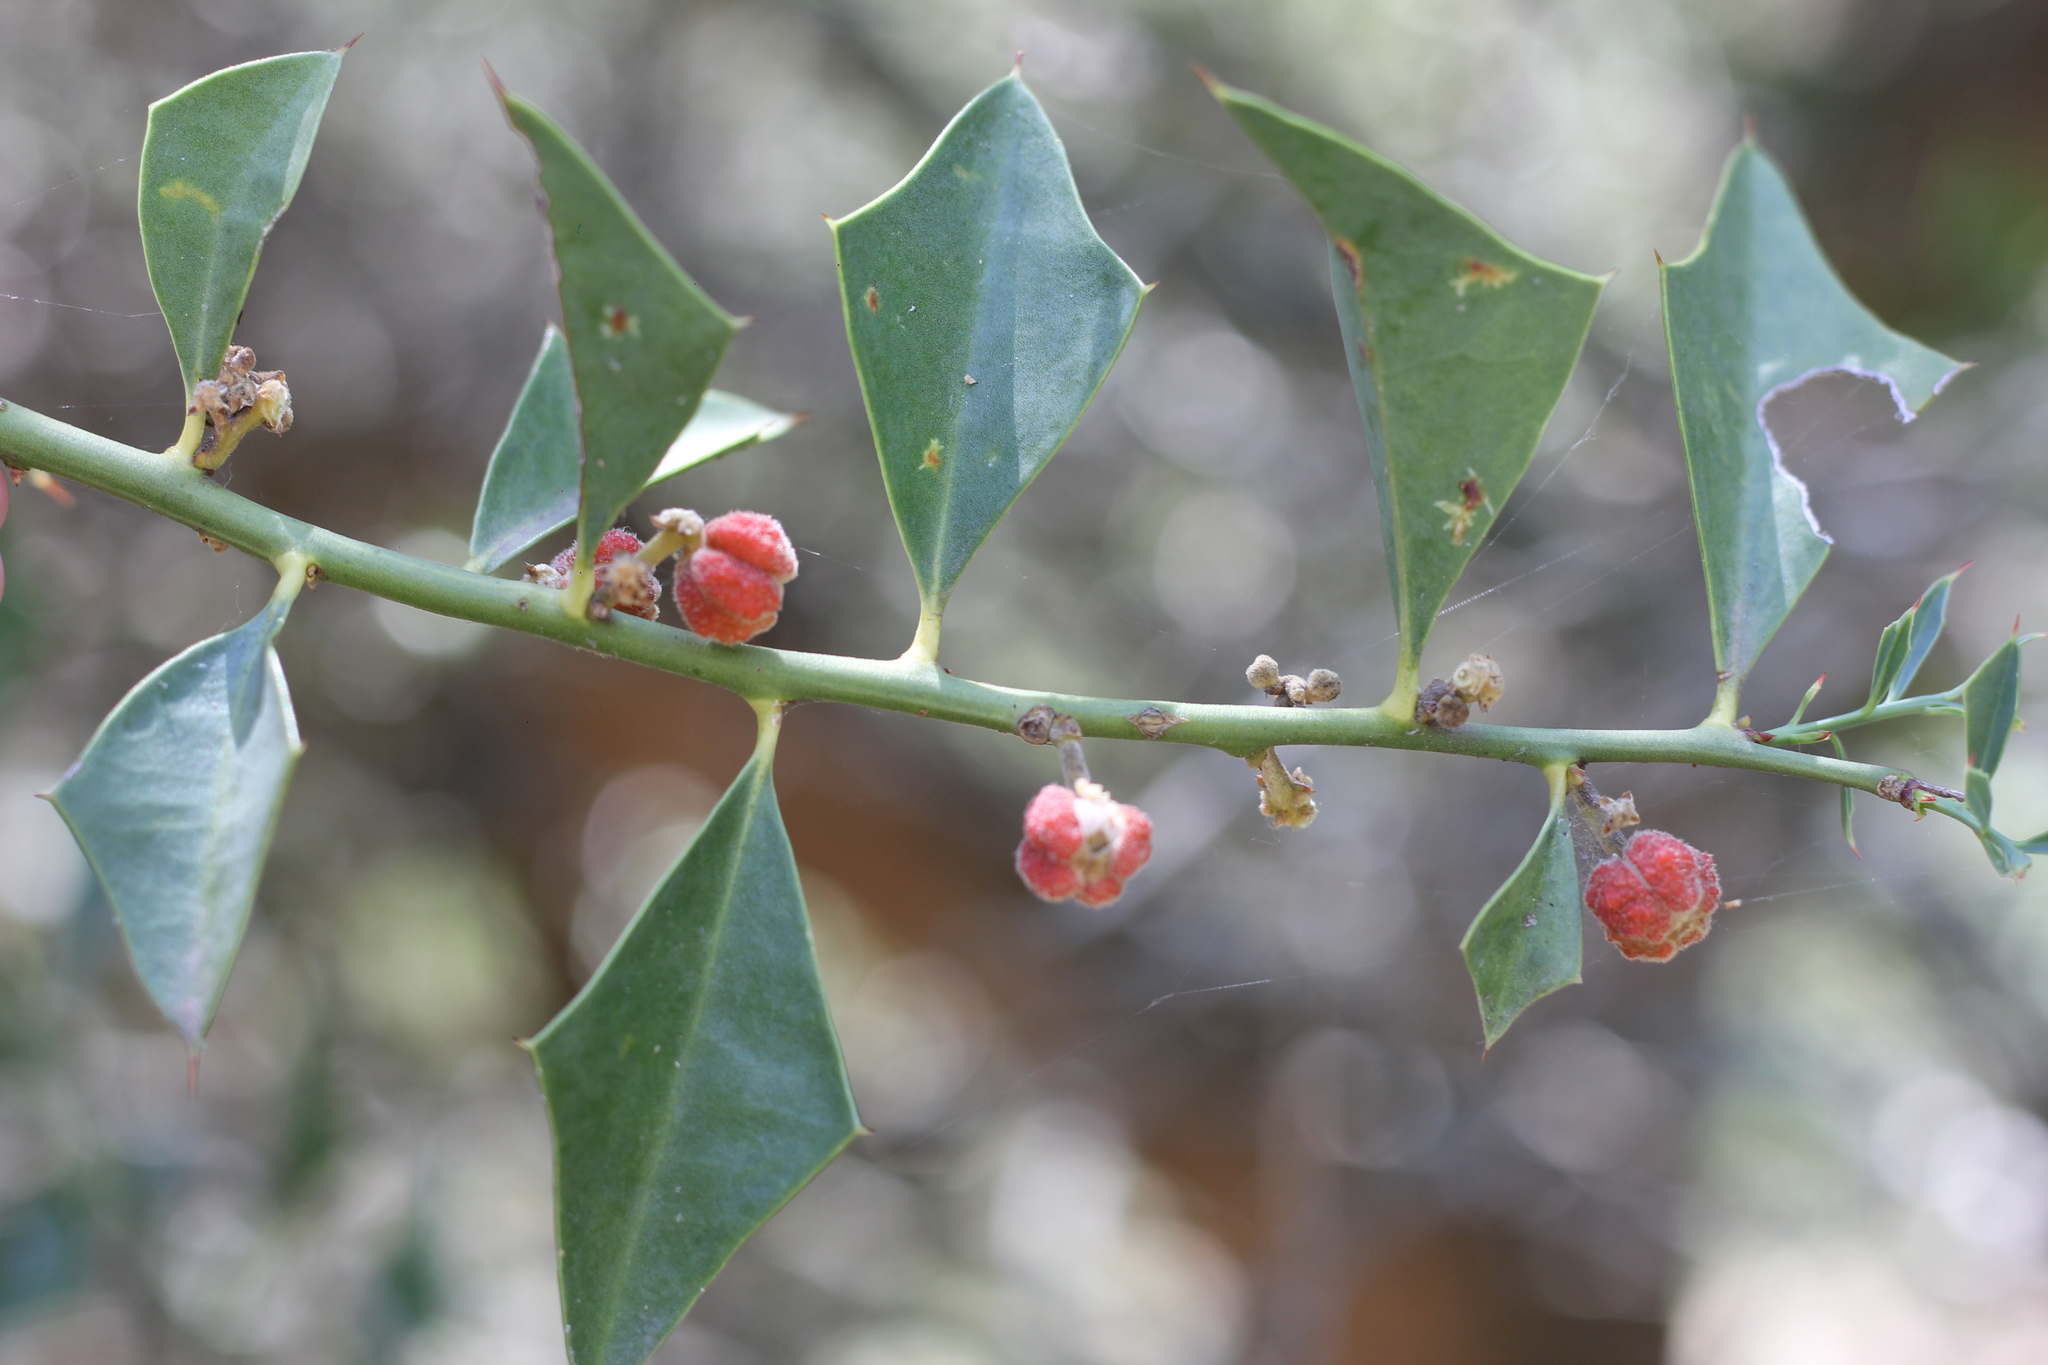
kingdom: Plantae
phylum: Tracheophyta
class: Magnoliopsida
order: Santalales
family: Cervantesiaceae
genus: Jodina
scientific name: Jodina rhombifolia
